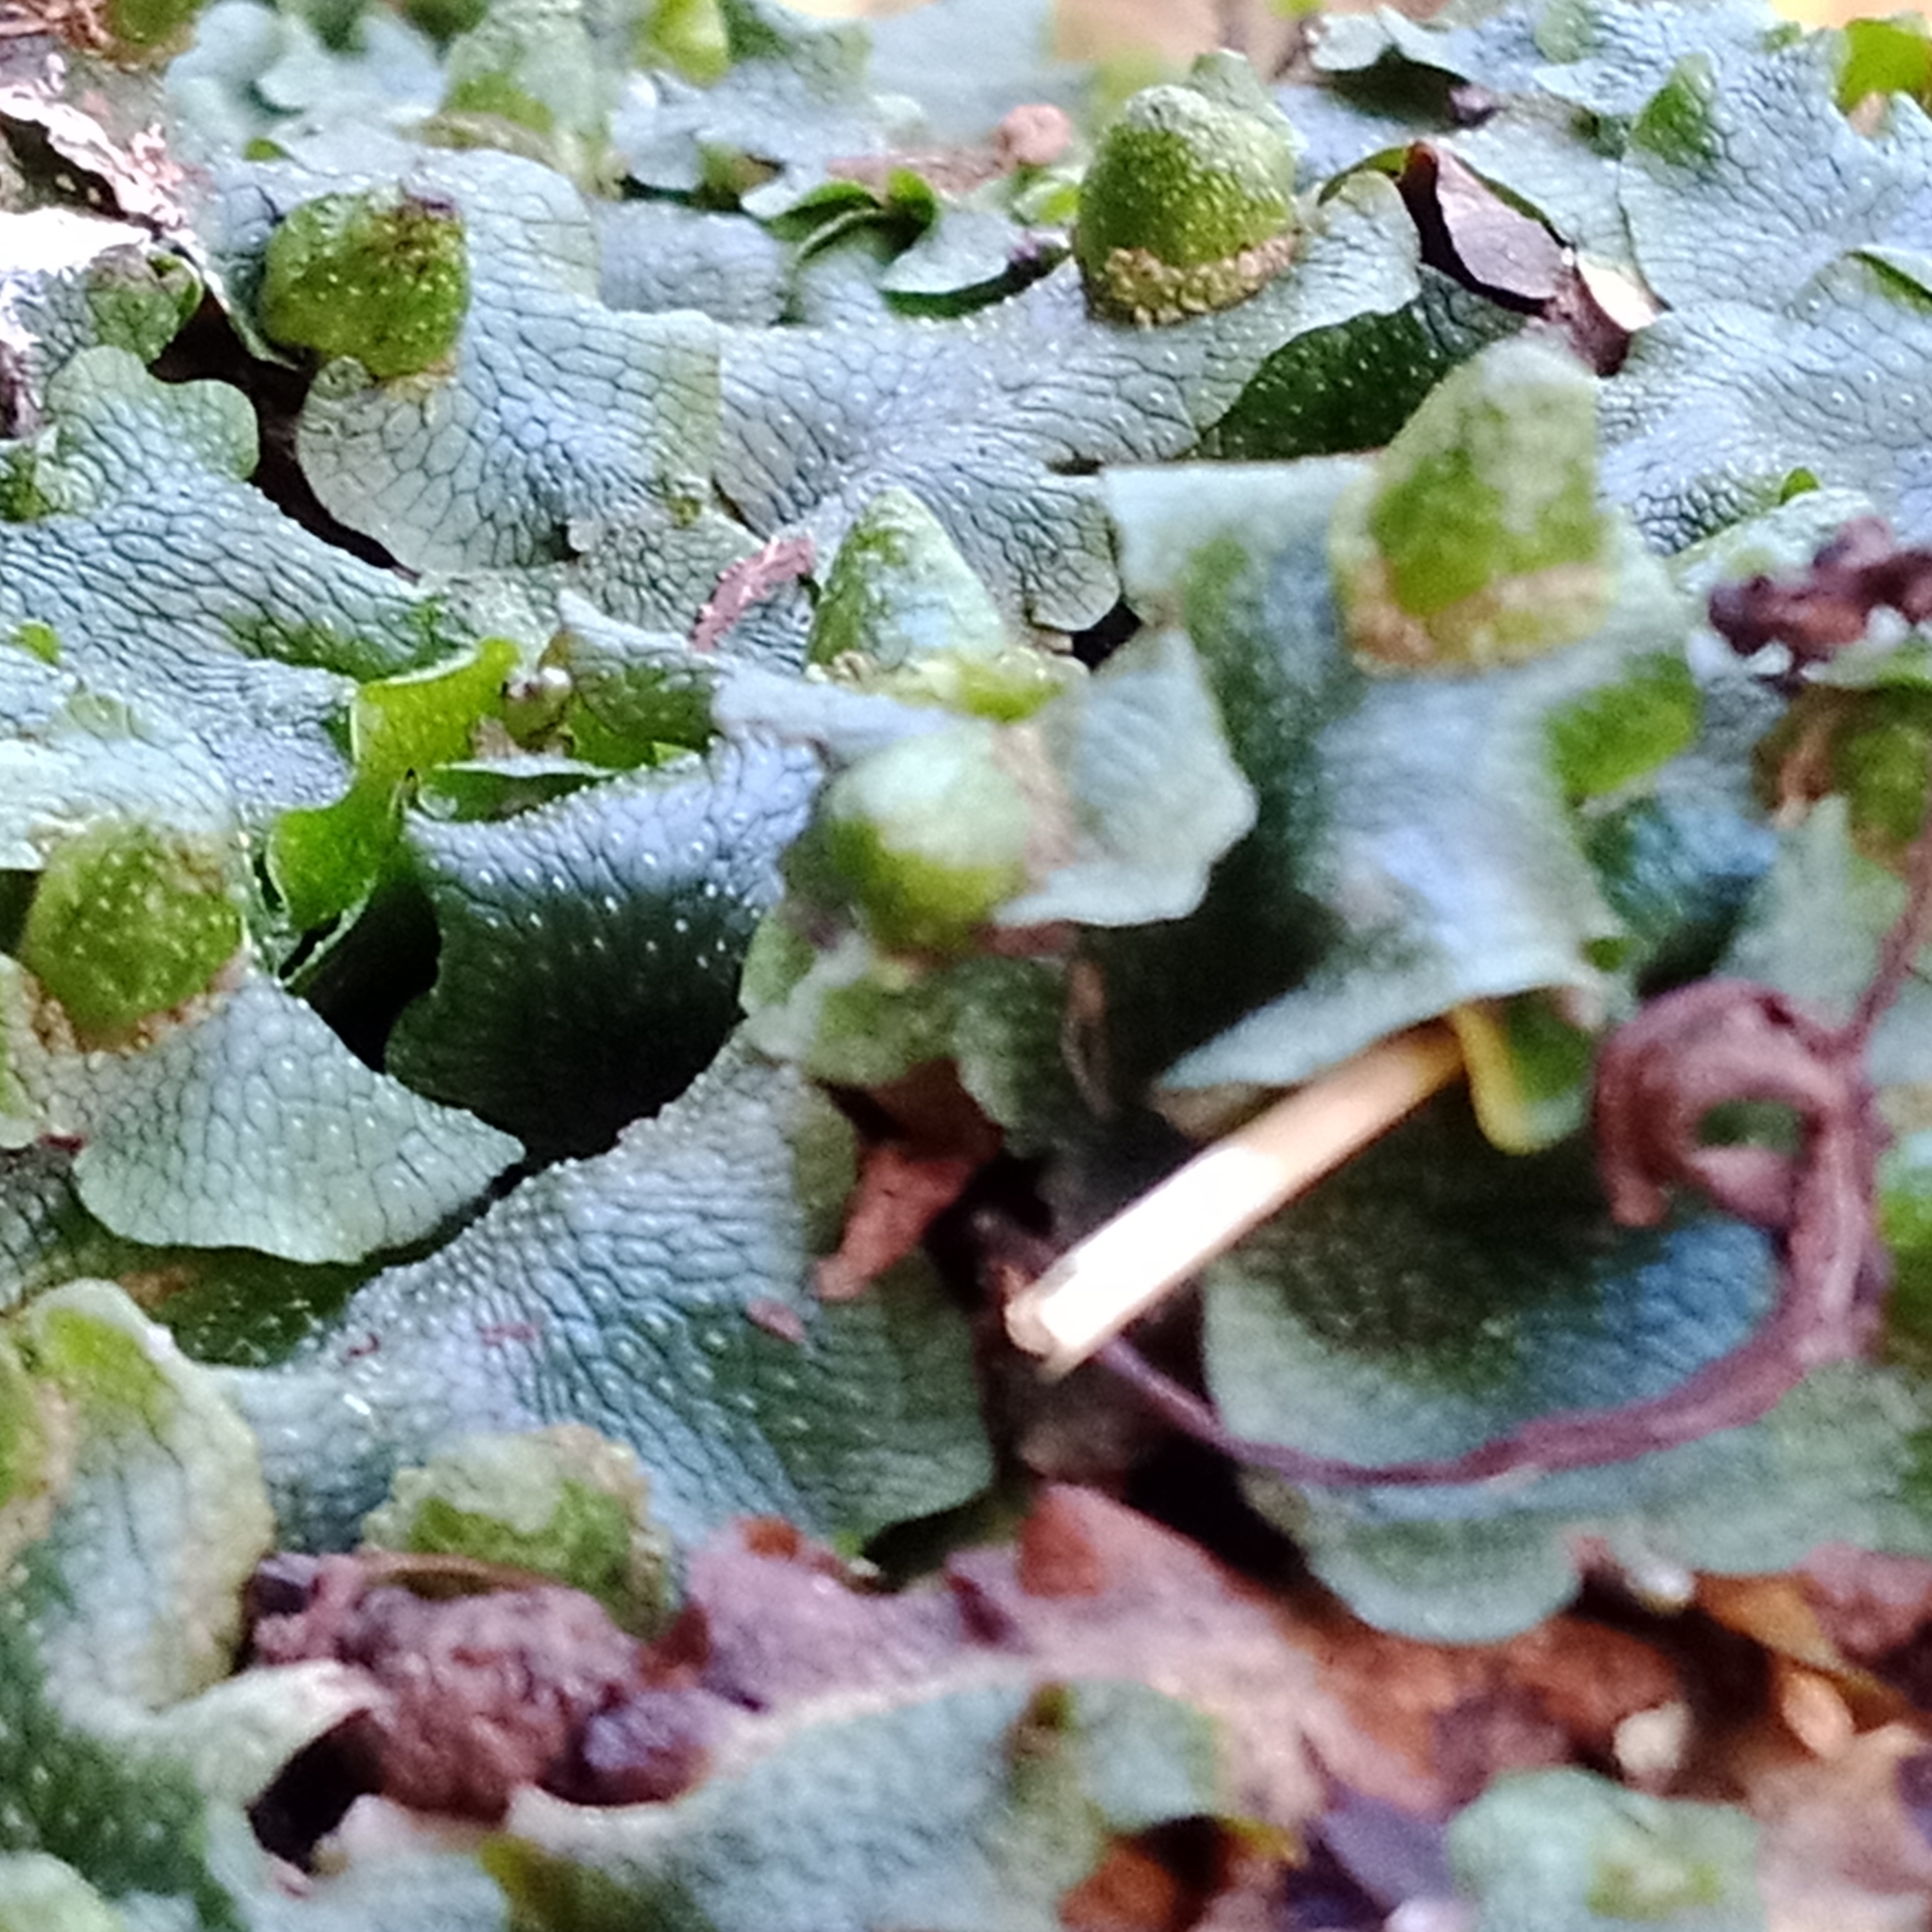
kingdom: Plantae
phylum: Marchantiophyta
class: Marchantiopsida
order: Marchantiales
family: Conocephalaceae
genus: Conocephalum
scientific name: Conocephalum salebrosum
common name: Cat-tongue liverwort
